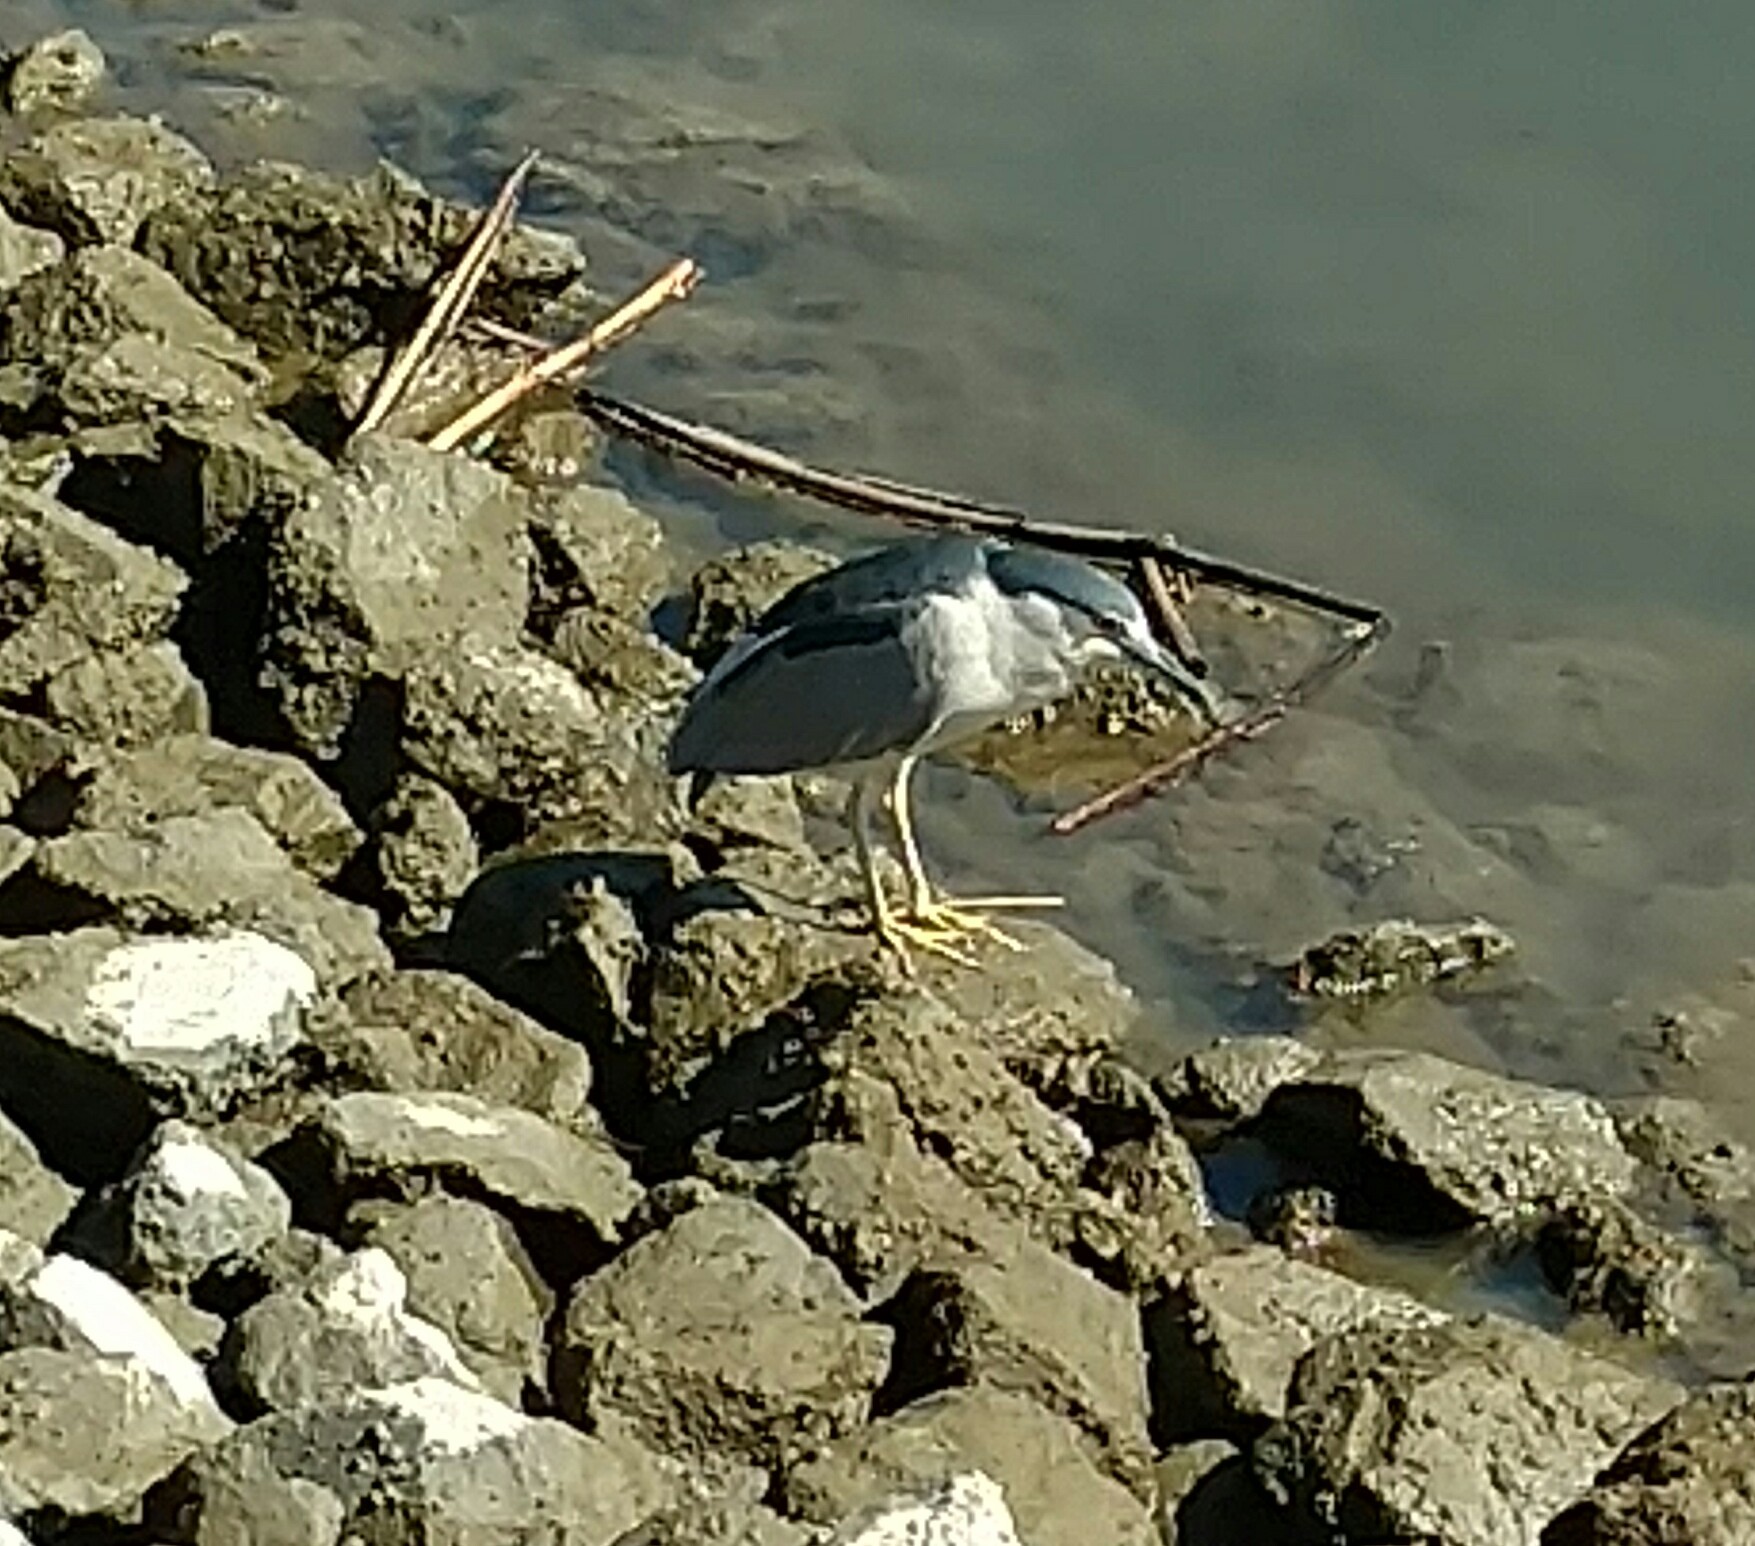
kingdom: Animalia
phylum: Chordata
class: Aves
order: Pelecaniformes
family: Ardeidae
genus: Nycticorax
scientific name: Nycticorax nycticorax
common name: Black-crowned night heron
